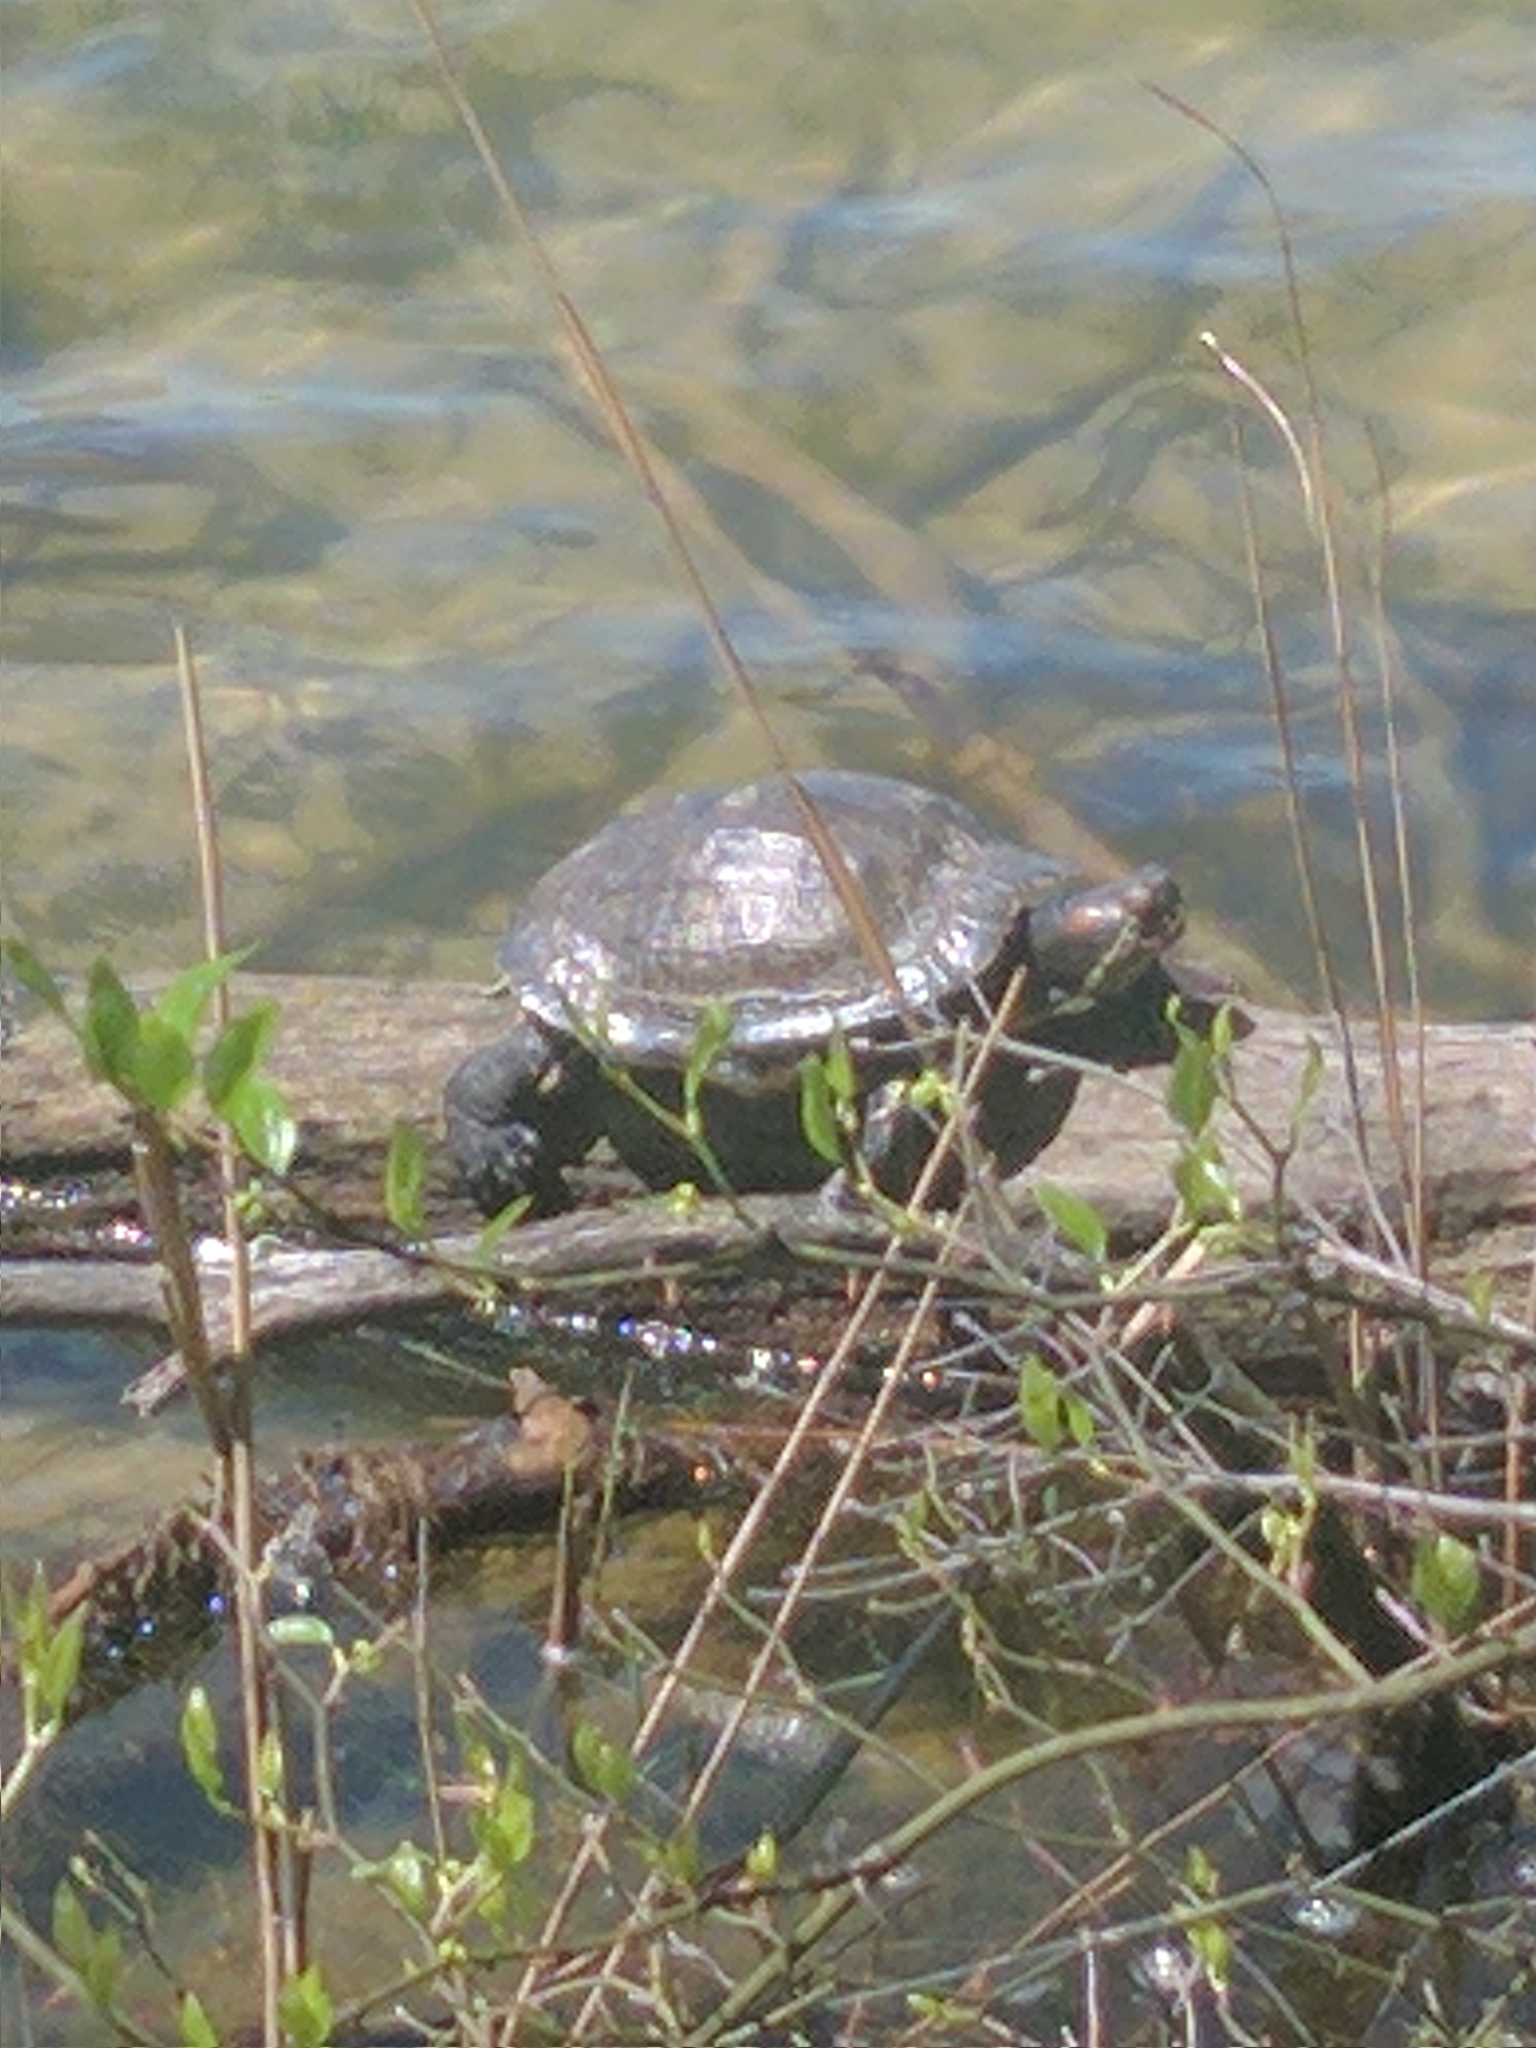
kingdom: Animalia
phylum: Chordata
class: Testudines
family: Emydidae
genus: Trachemys
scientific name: Trachemys scripta
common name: Slider
